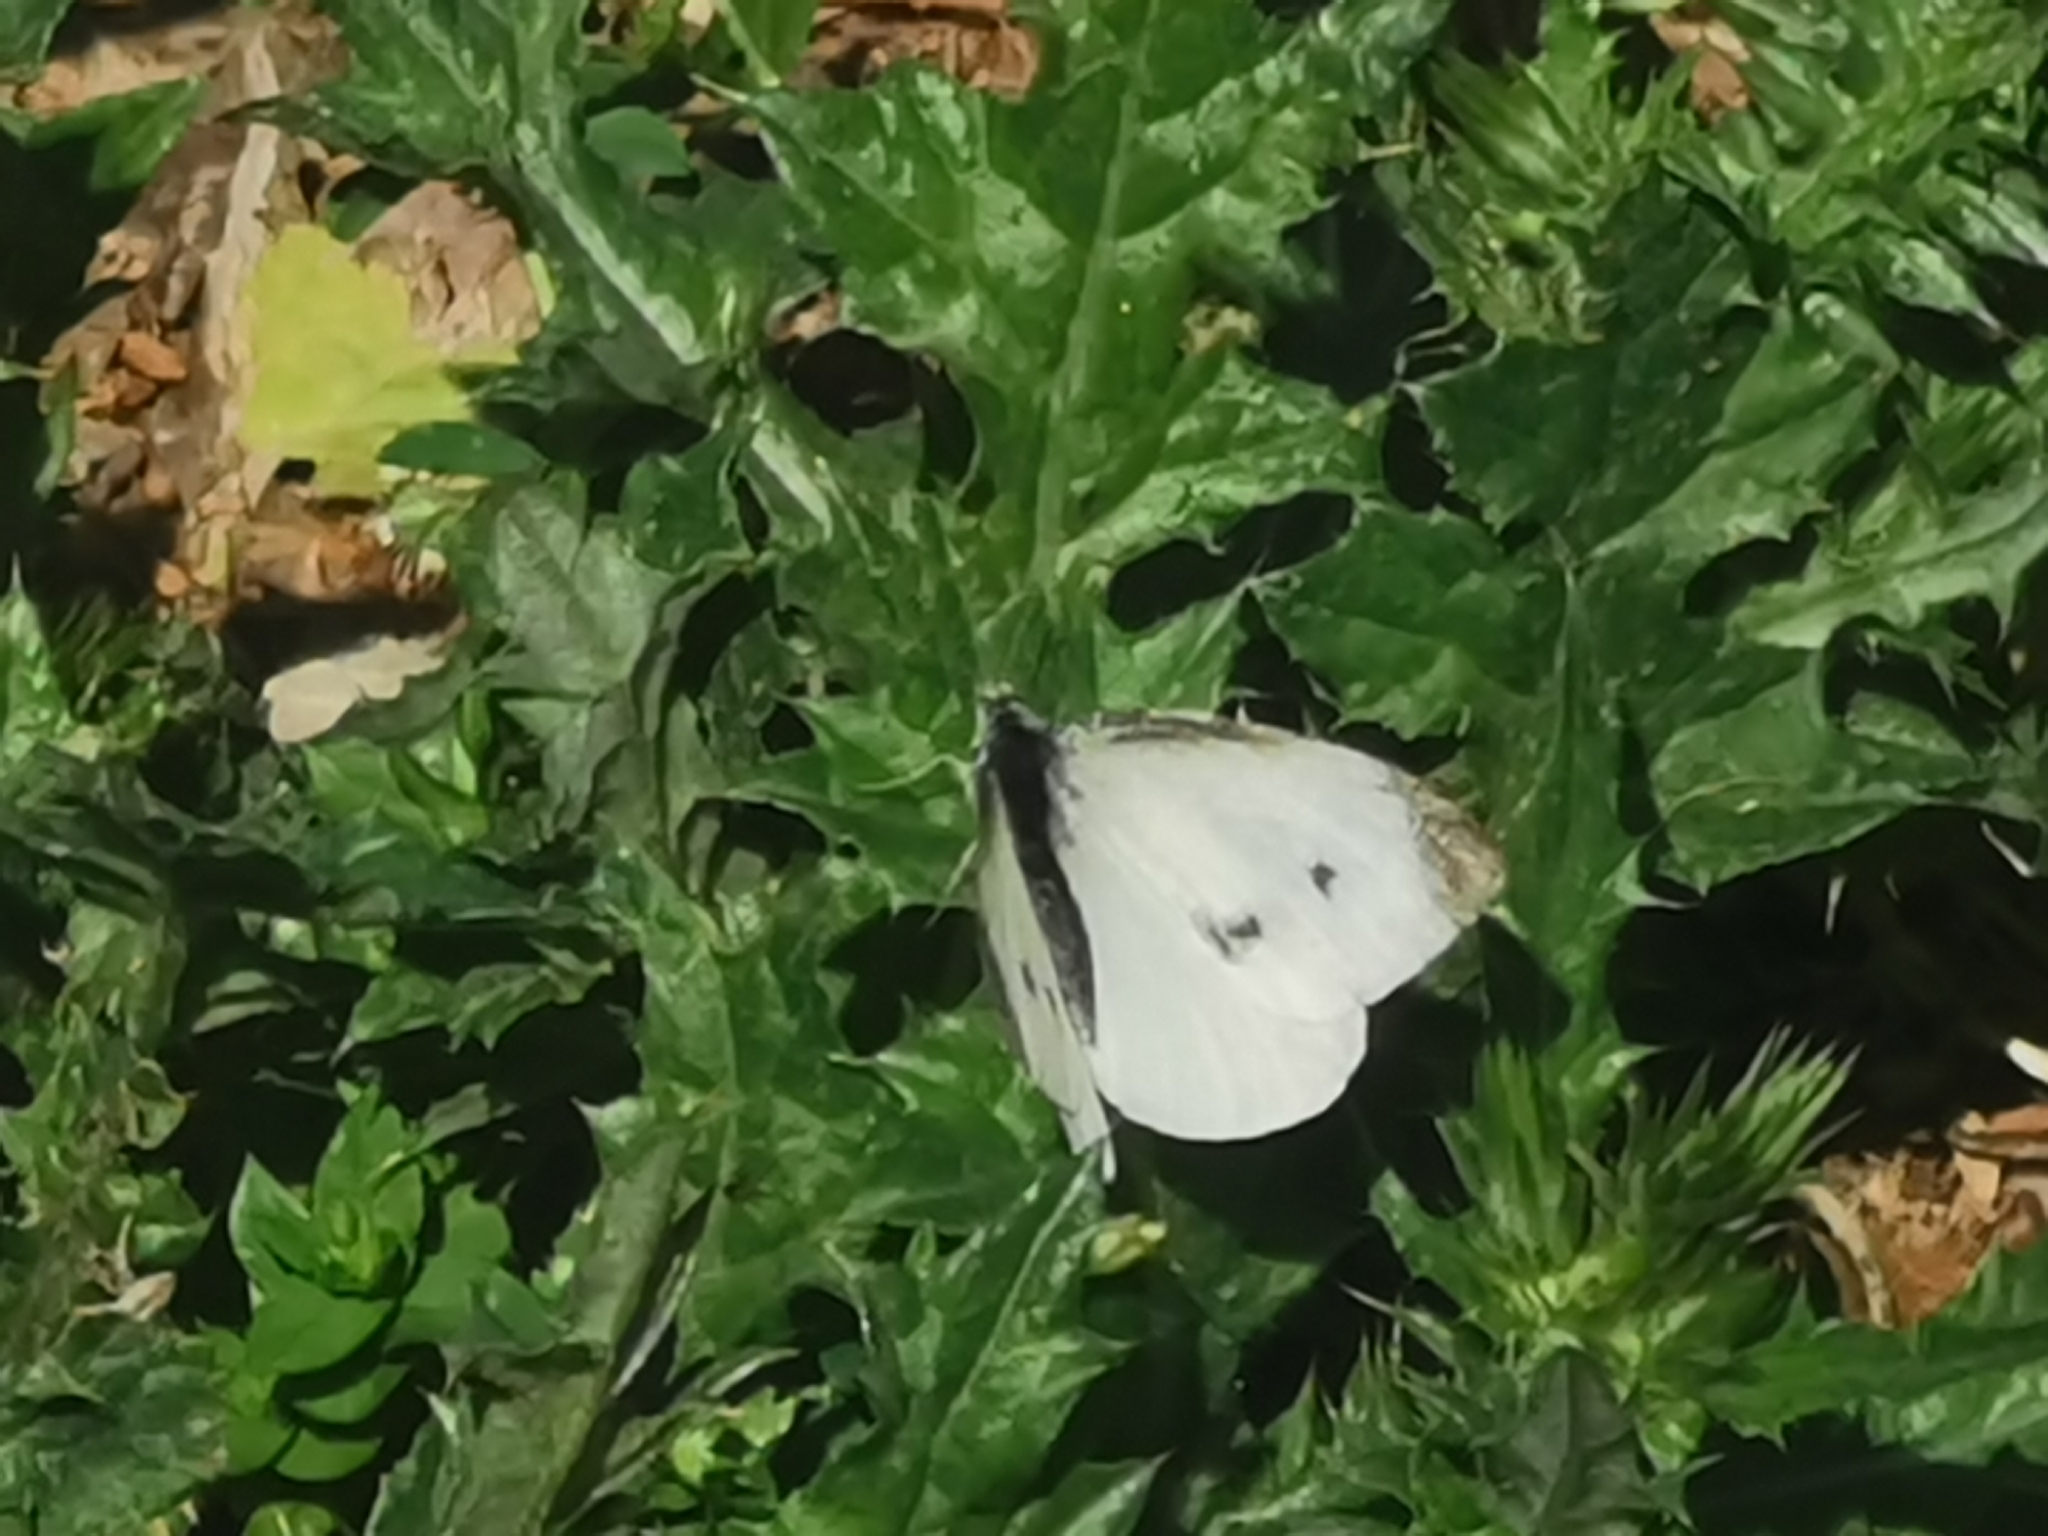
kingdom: Animalia
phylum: Arthropoda
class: Insecta
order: Lepidoptera
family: Pieridae
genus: Pieris
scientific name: Pieris rapae
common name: Small white
